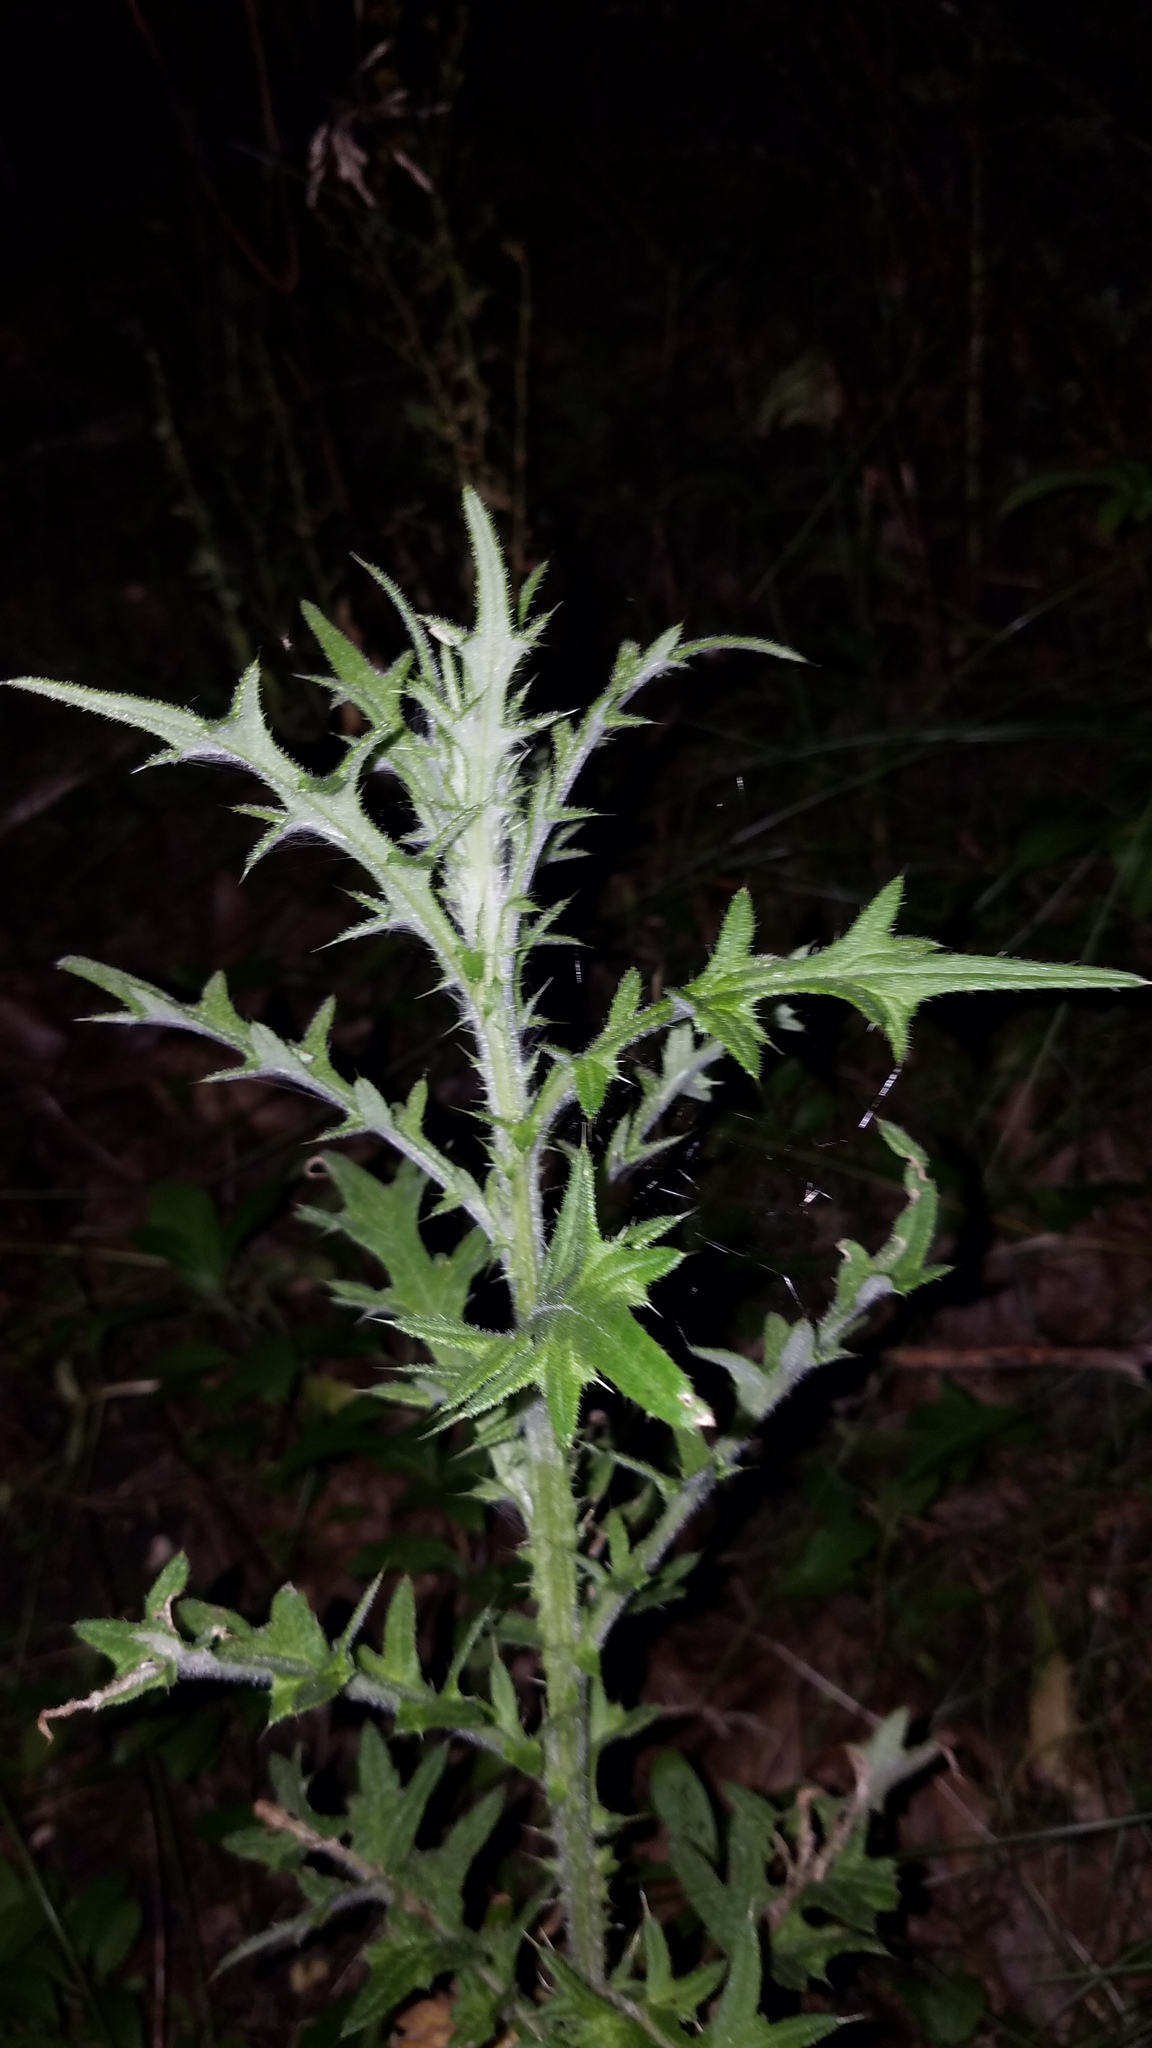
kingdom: Plantae
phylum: Tracheophyta
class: Magnoliopsida
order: Asterales
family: Asteraceae
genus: Cirsium
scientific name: Cirsium vulgare
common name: Bull thistle
